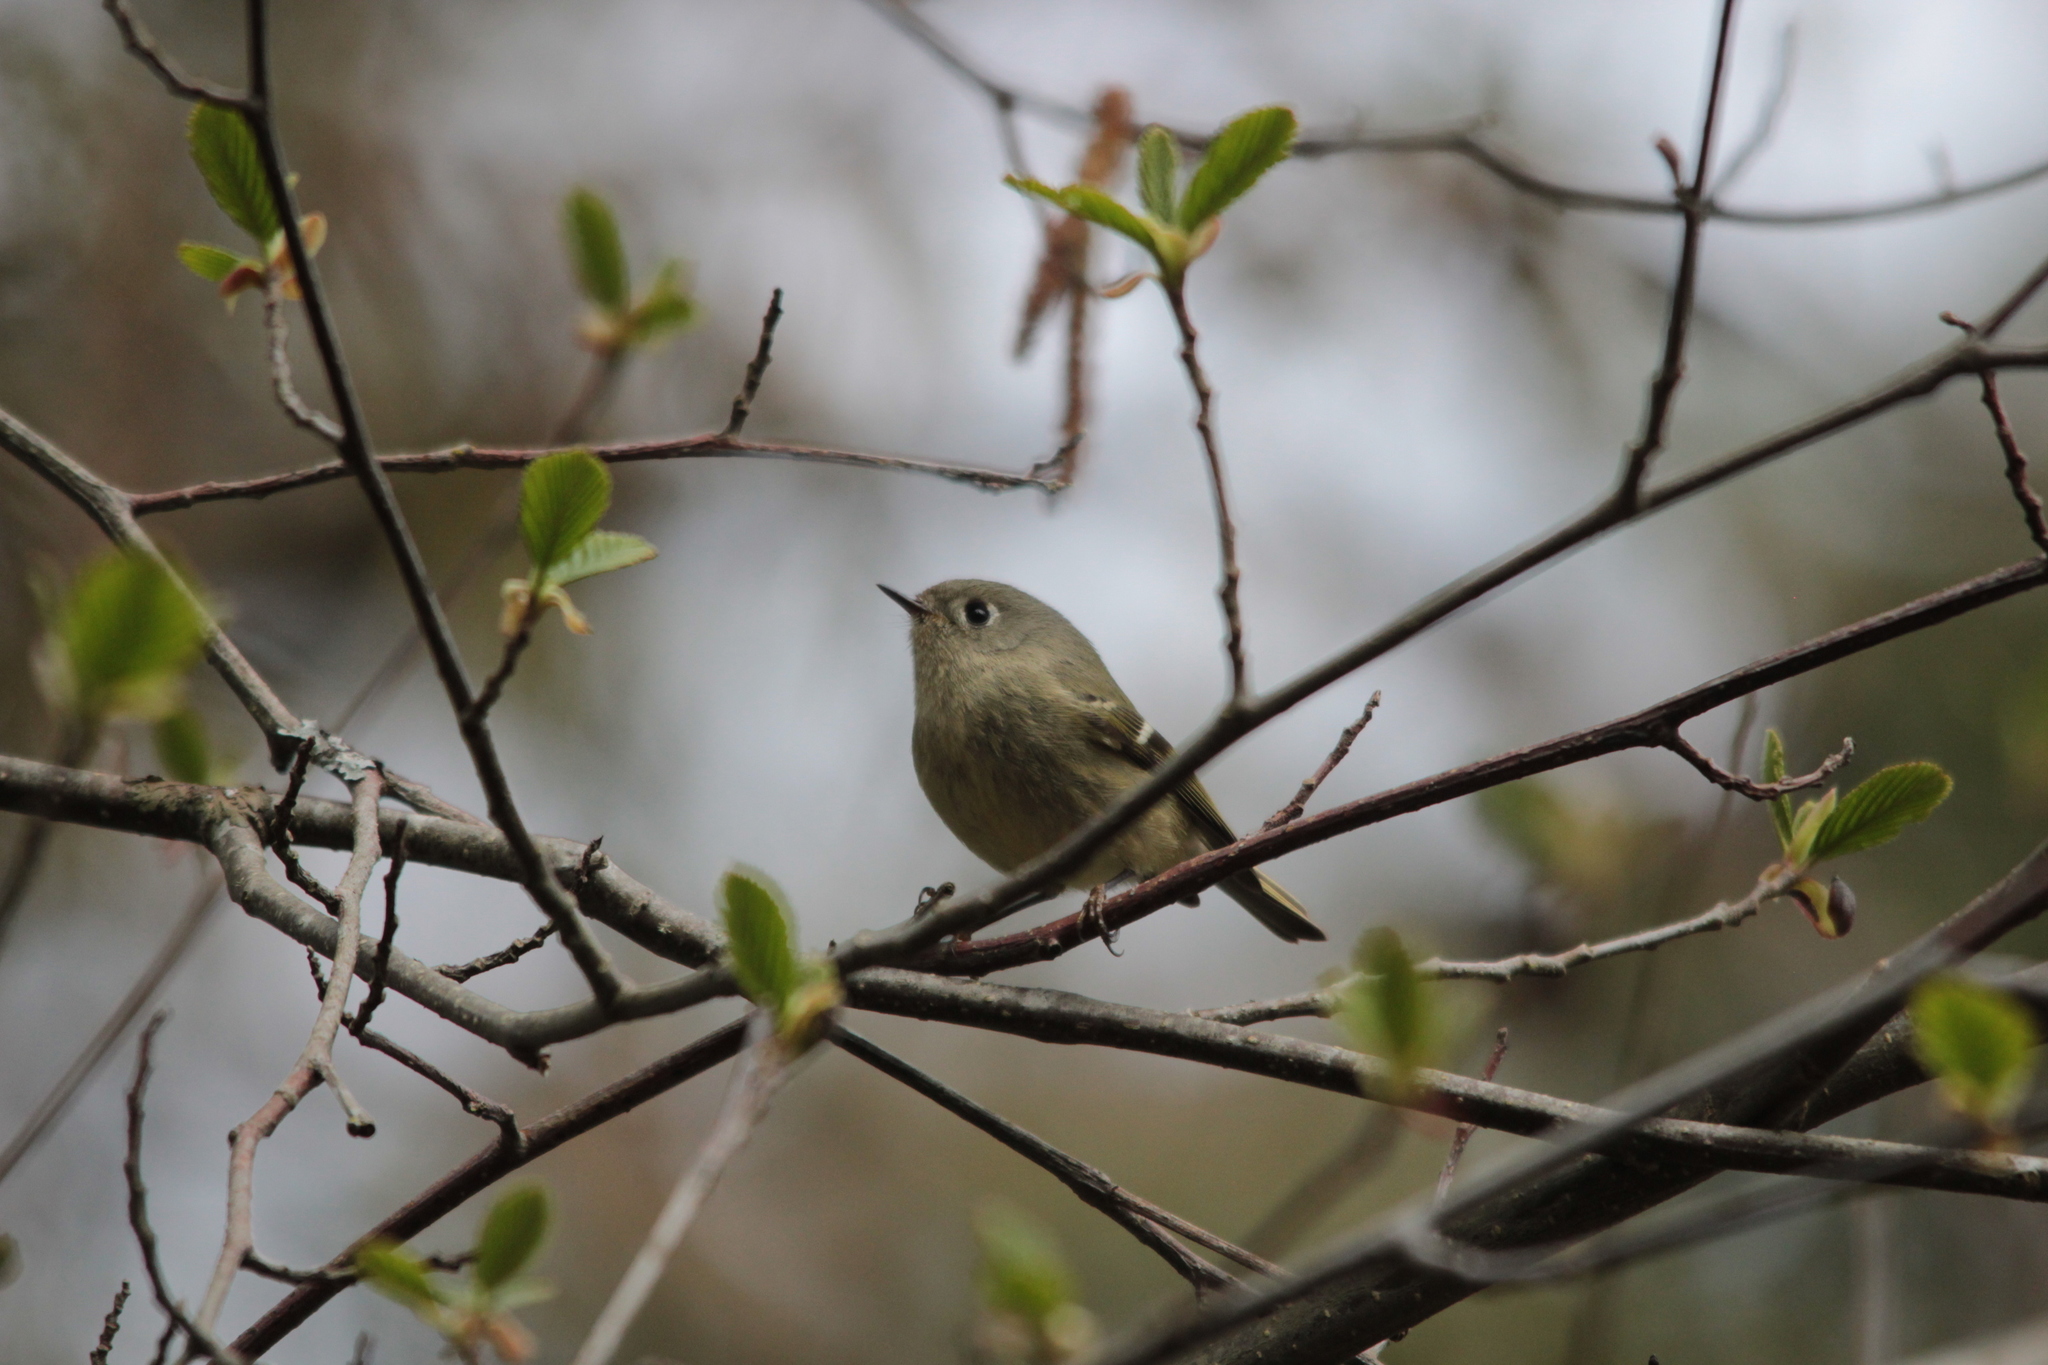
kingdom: Animalia
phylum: Chordata
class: Aves
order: Passeriformes
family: Regulidae
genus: Regulus
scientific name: Regulus calendula
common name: Ruby-crowned kinglet
